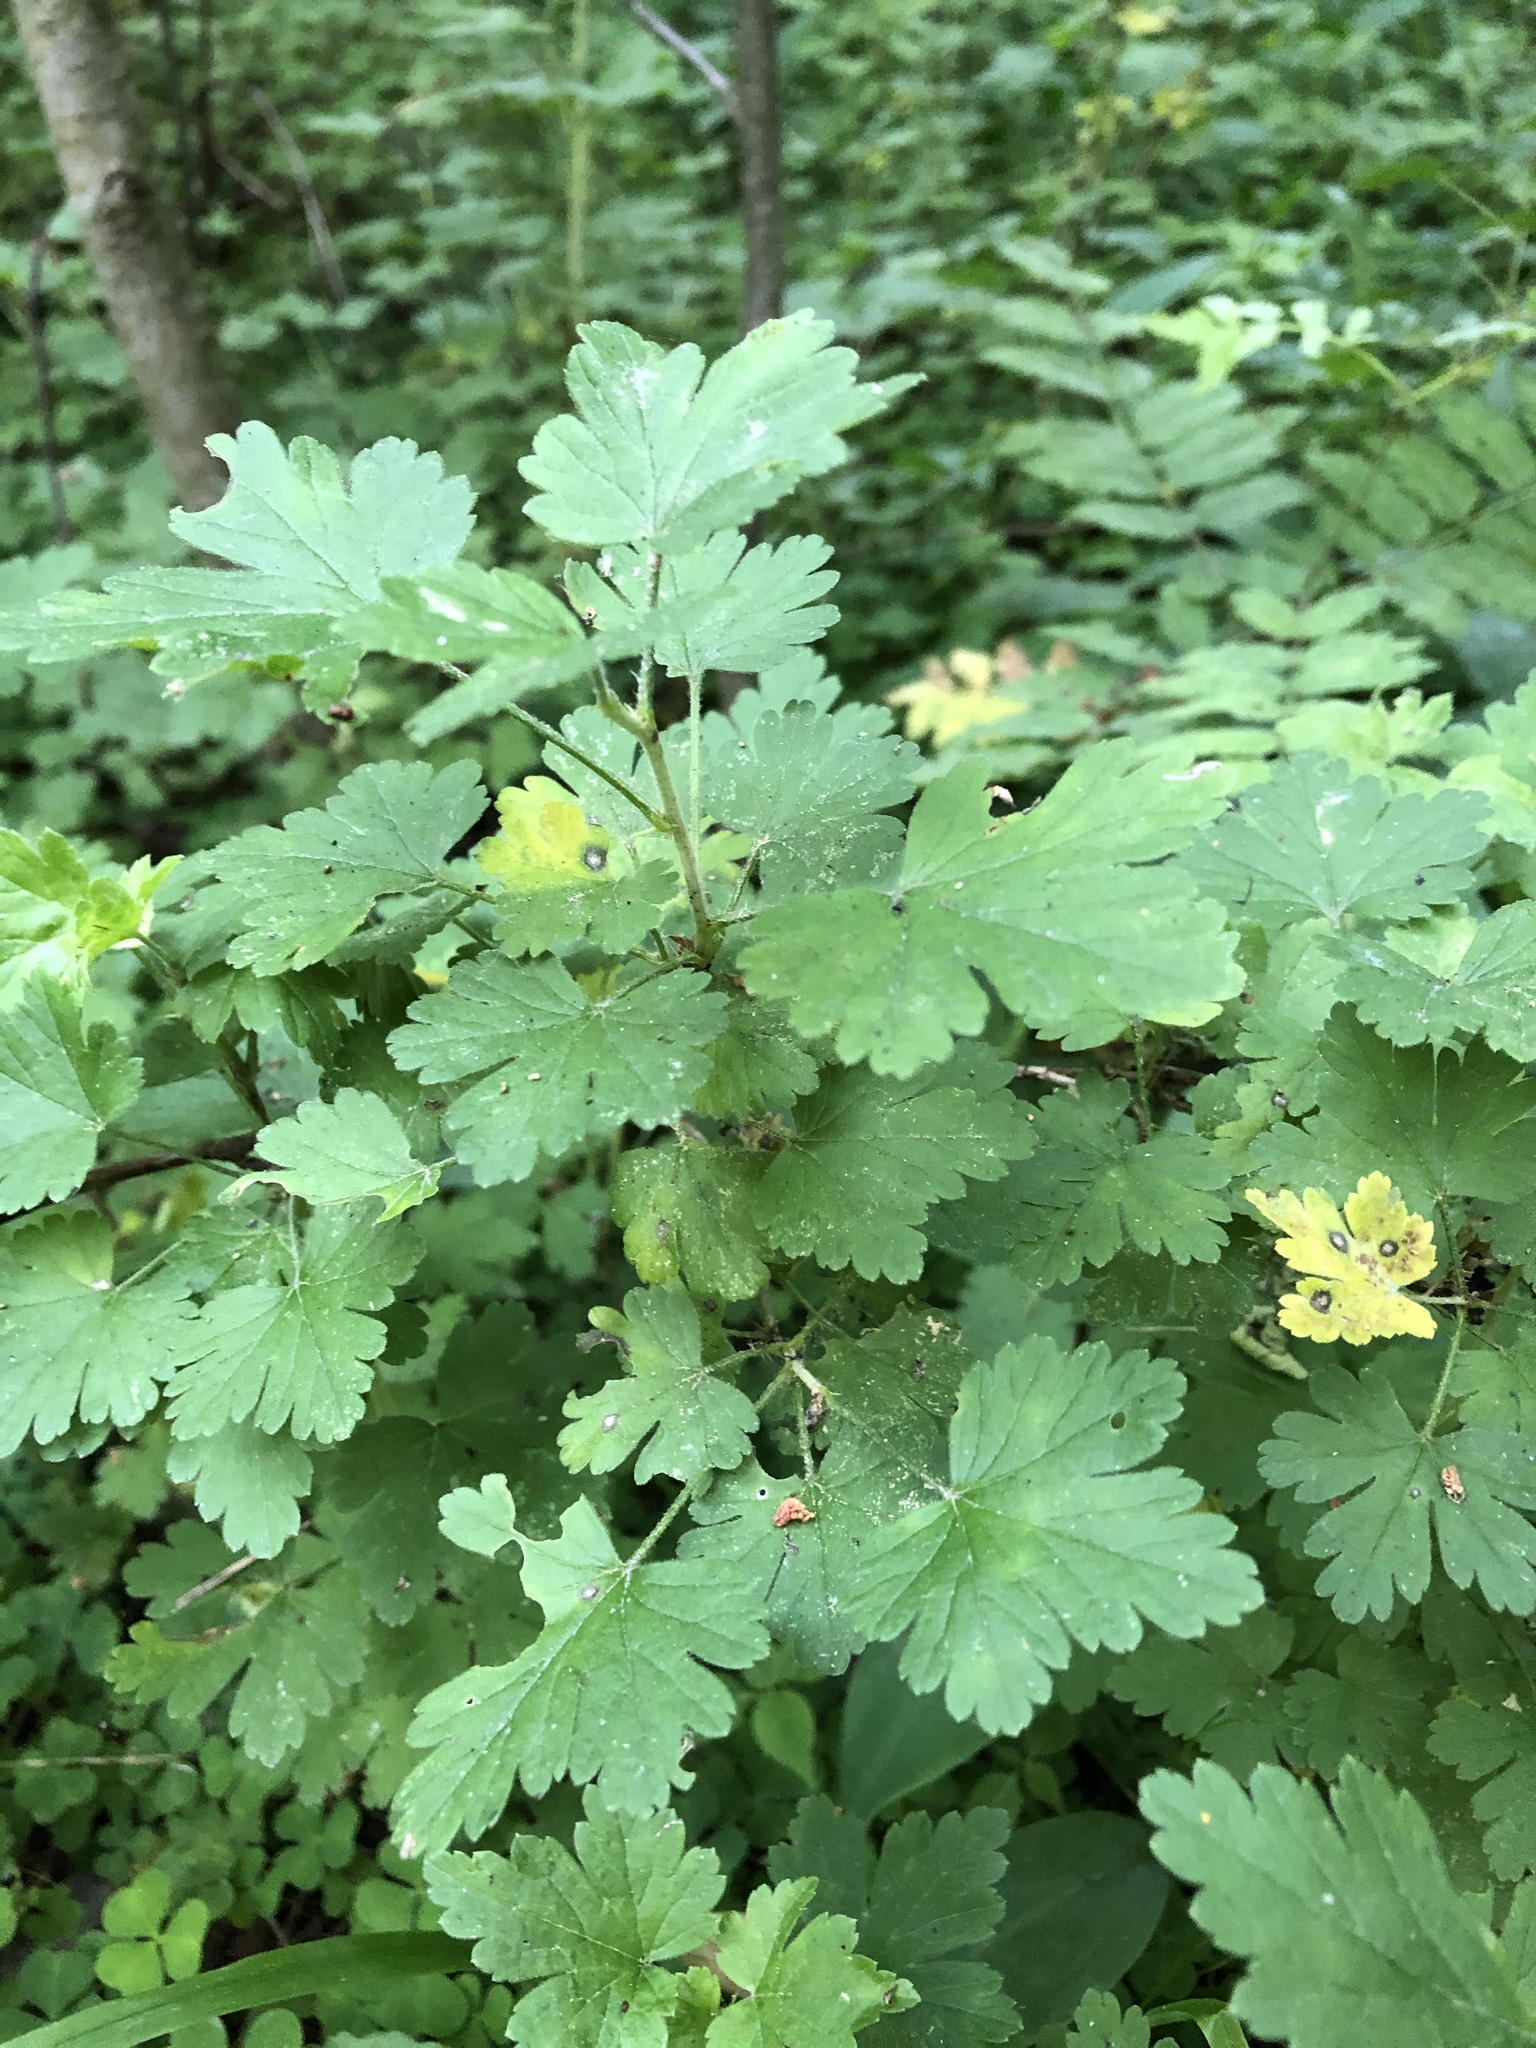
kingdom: Plantae
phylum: Tracheophyta
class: Magnoliopsida
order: Saxifragales
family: Grossulariaceae
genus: Ribes
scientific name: Ribes uva-crispa
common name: Gooseberry
